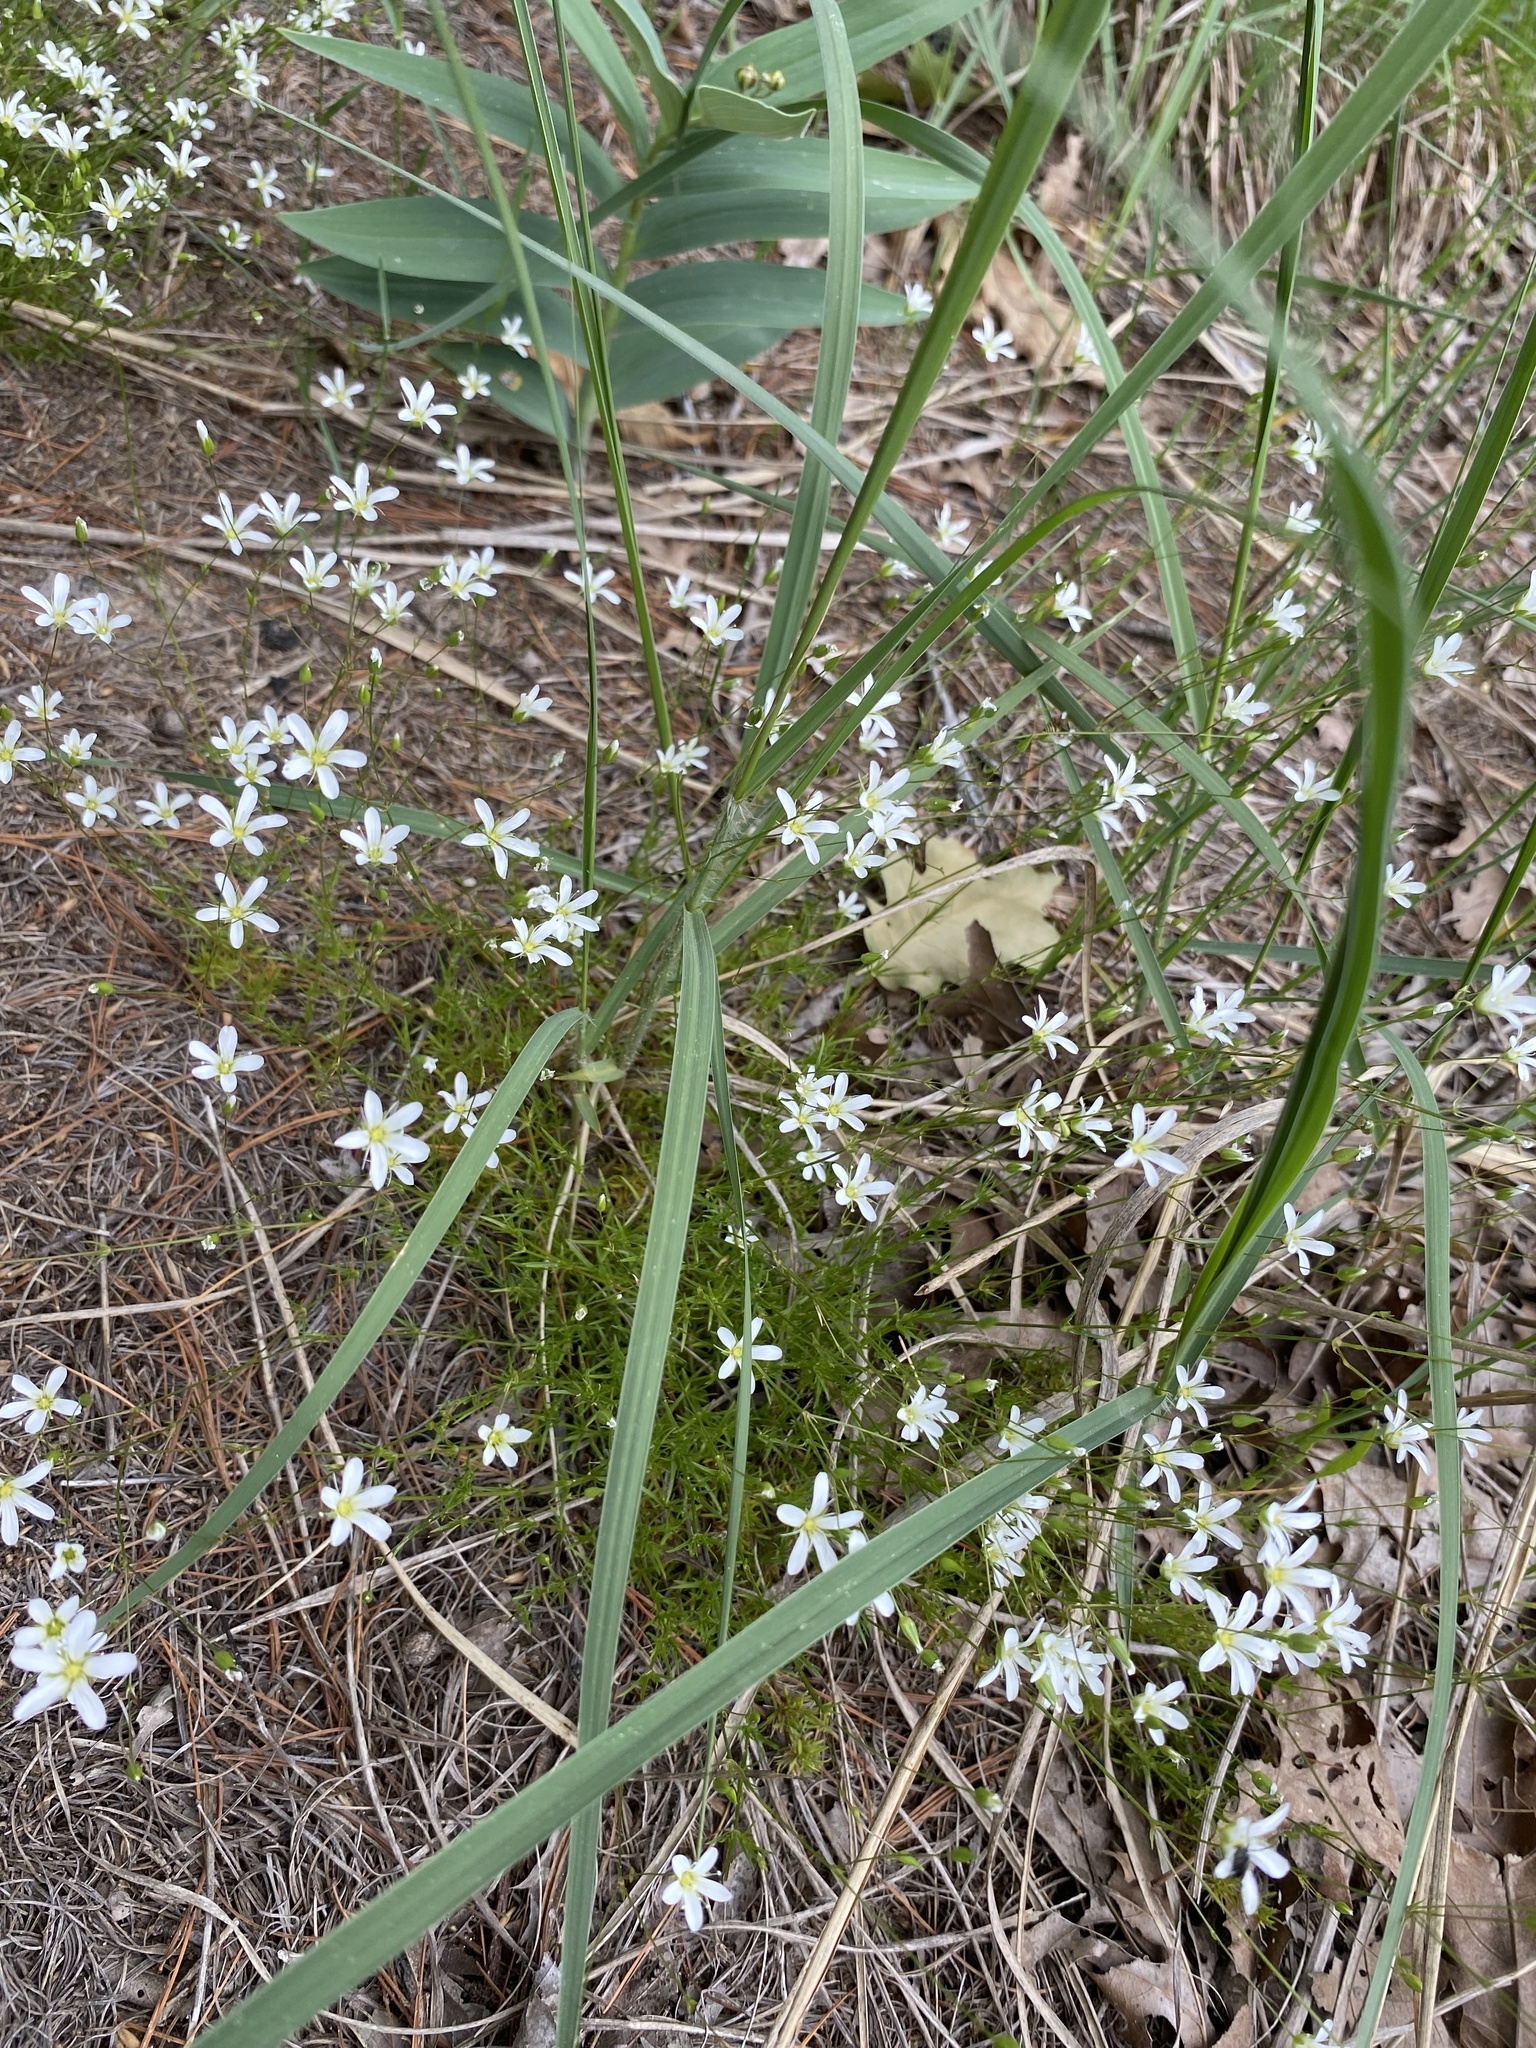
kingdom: Plantae
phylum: Tracheophyta
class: Magnoliopsida
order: Caryophyllales
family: Caryophyllaceae
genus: Sabulina
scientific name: Sabulina michauxii
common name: Michaux's stitchwort
